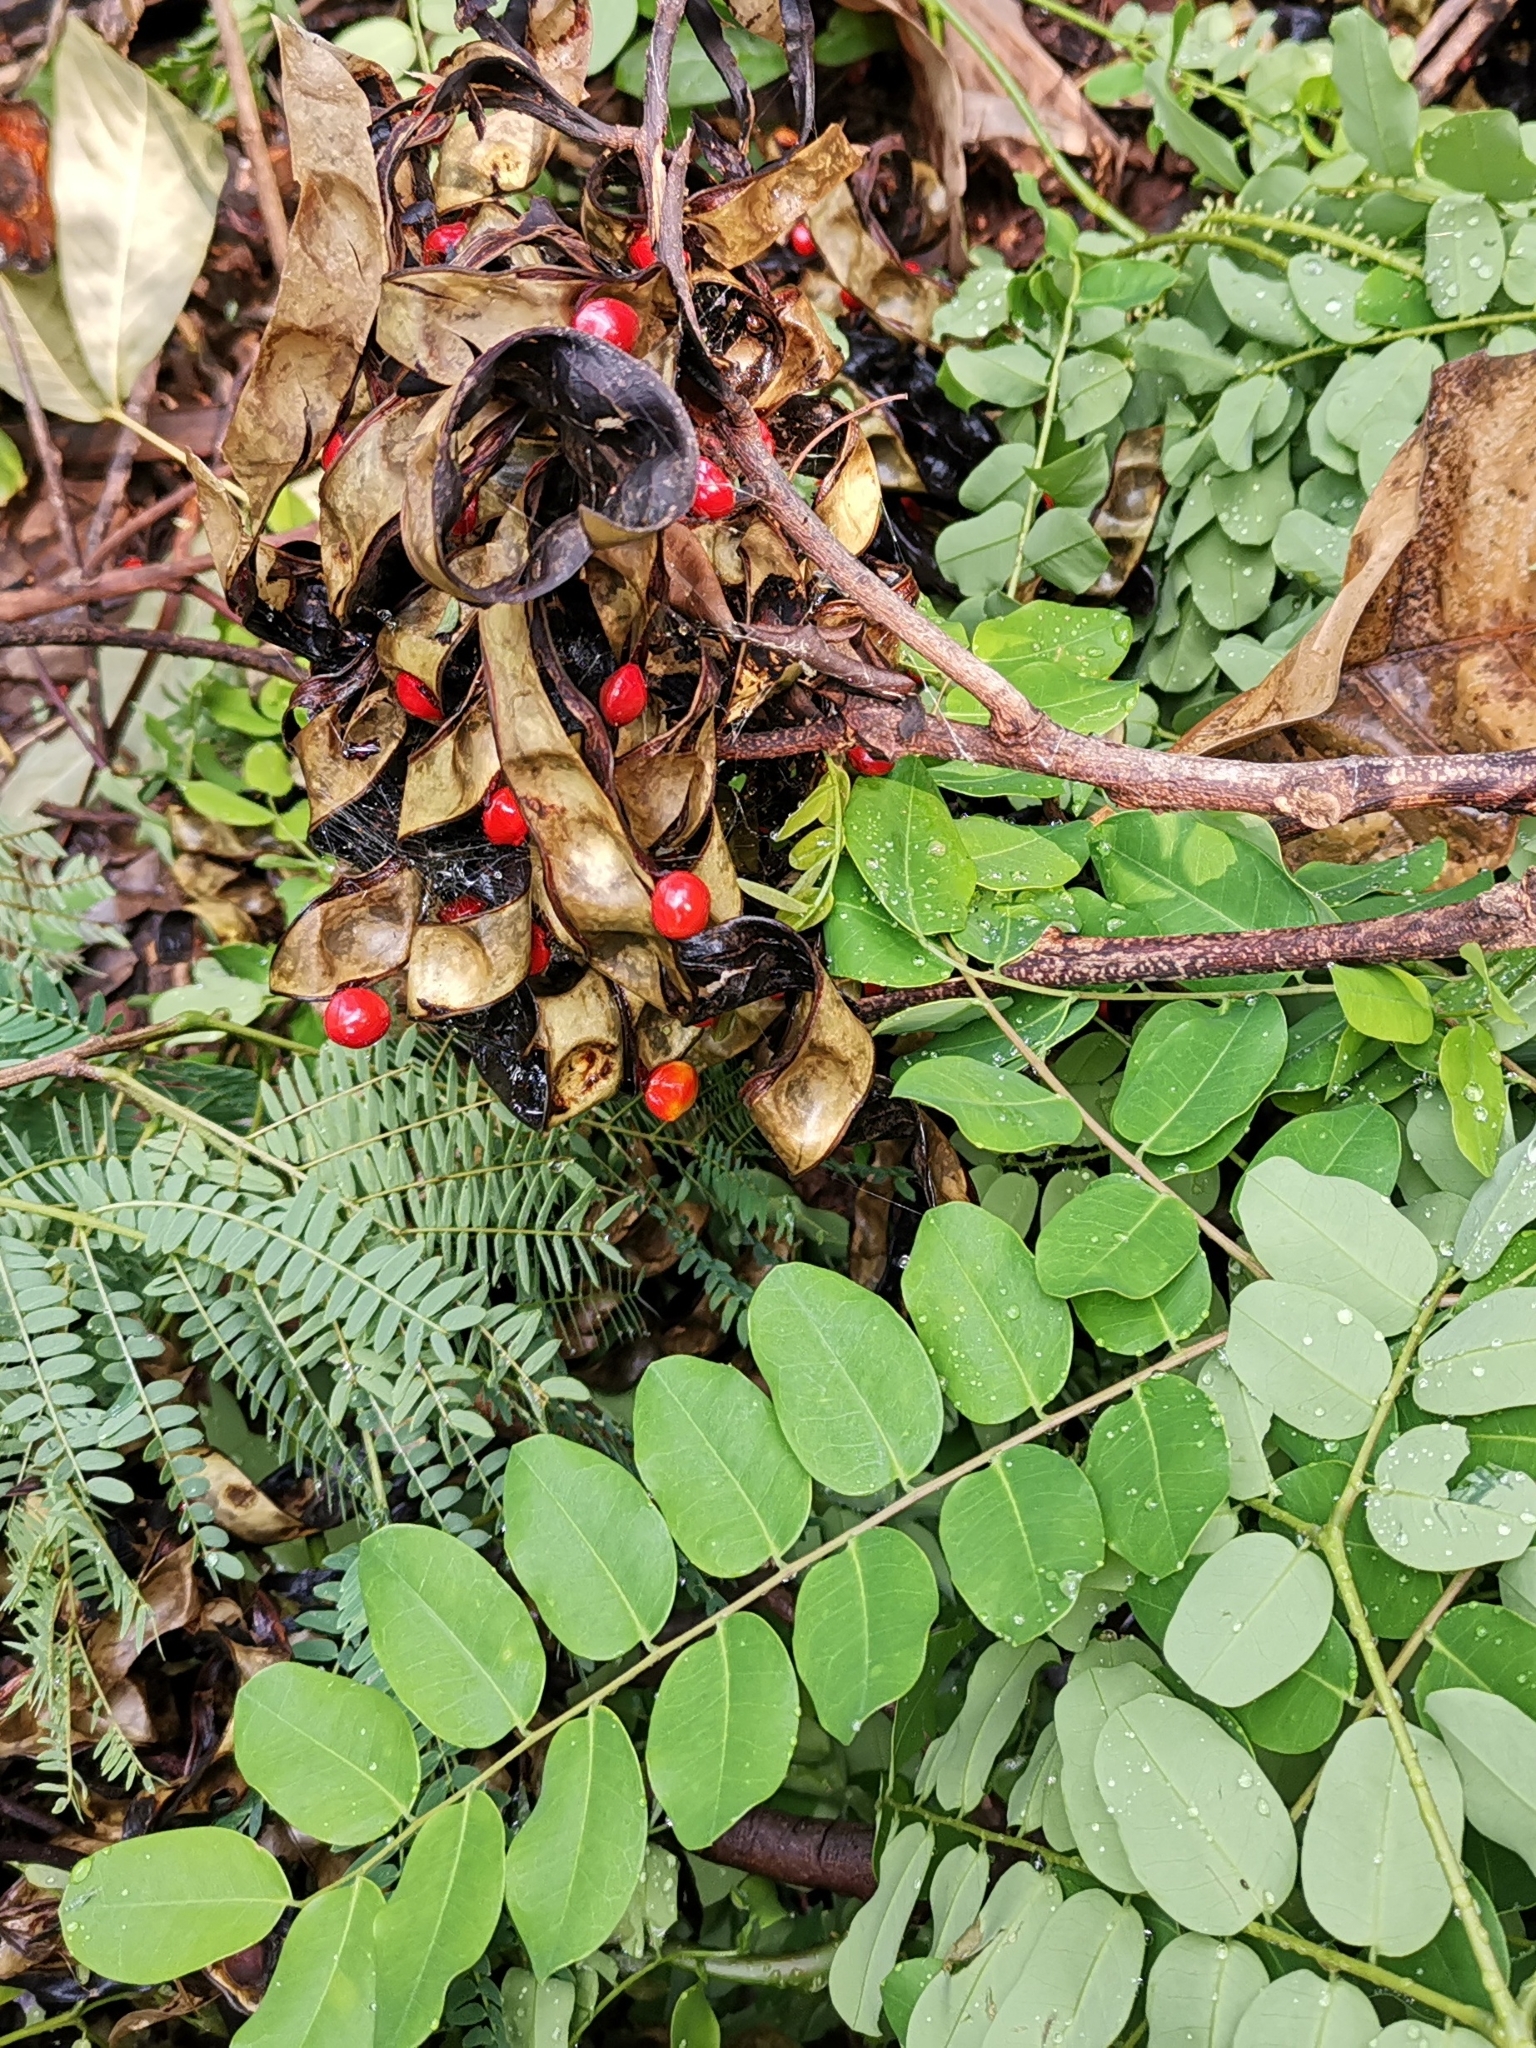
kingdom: Plantae
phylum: Tracheophyta
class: Magnoliopsida
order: Fabales
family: Fabaceae
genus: Adenanthera
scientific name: Adenanthera pavonina
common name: Red beadtree
